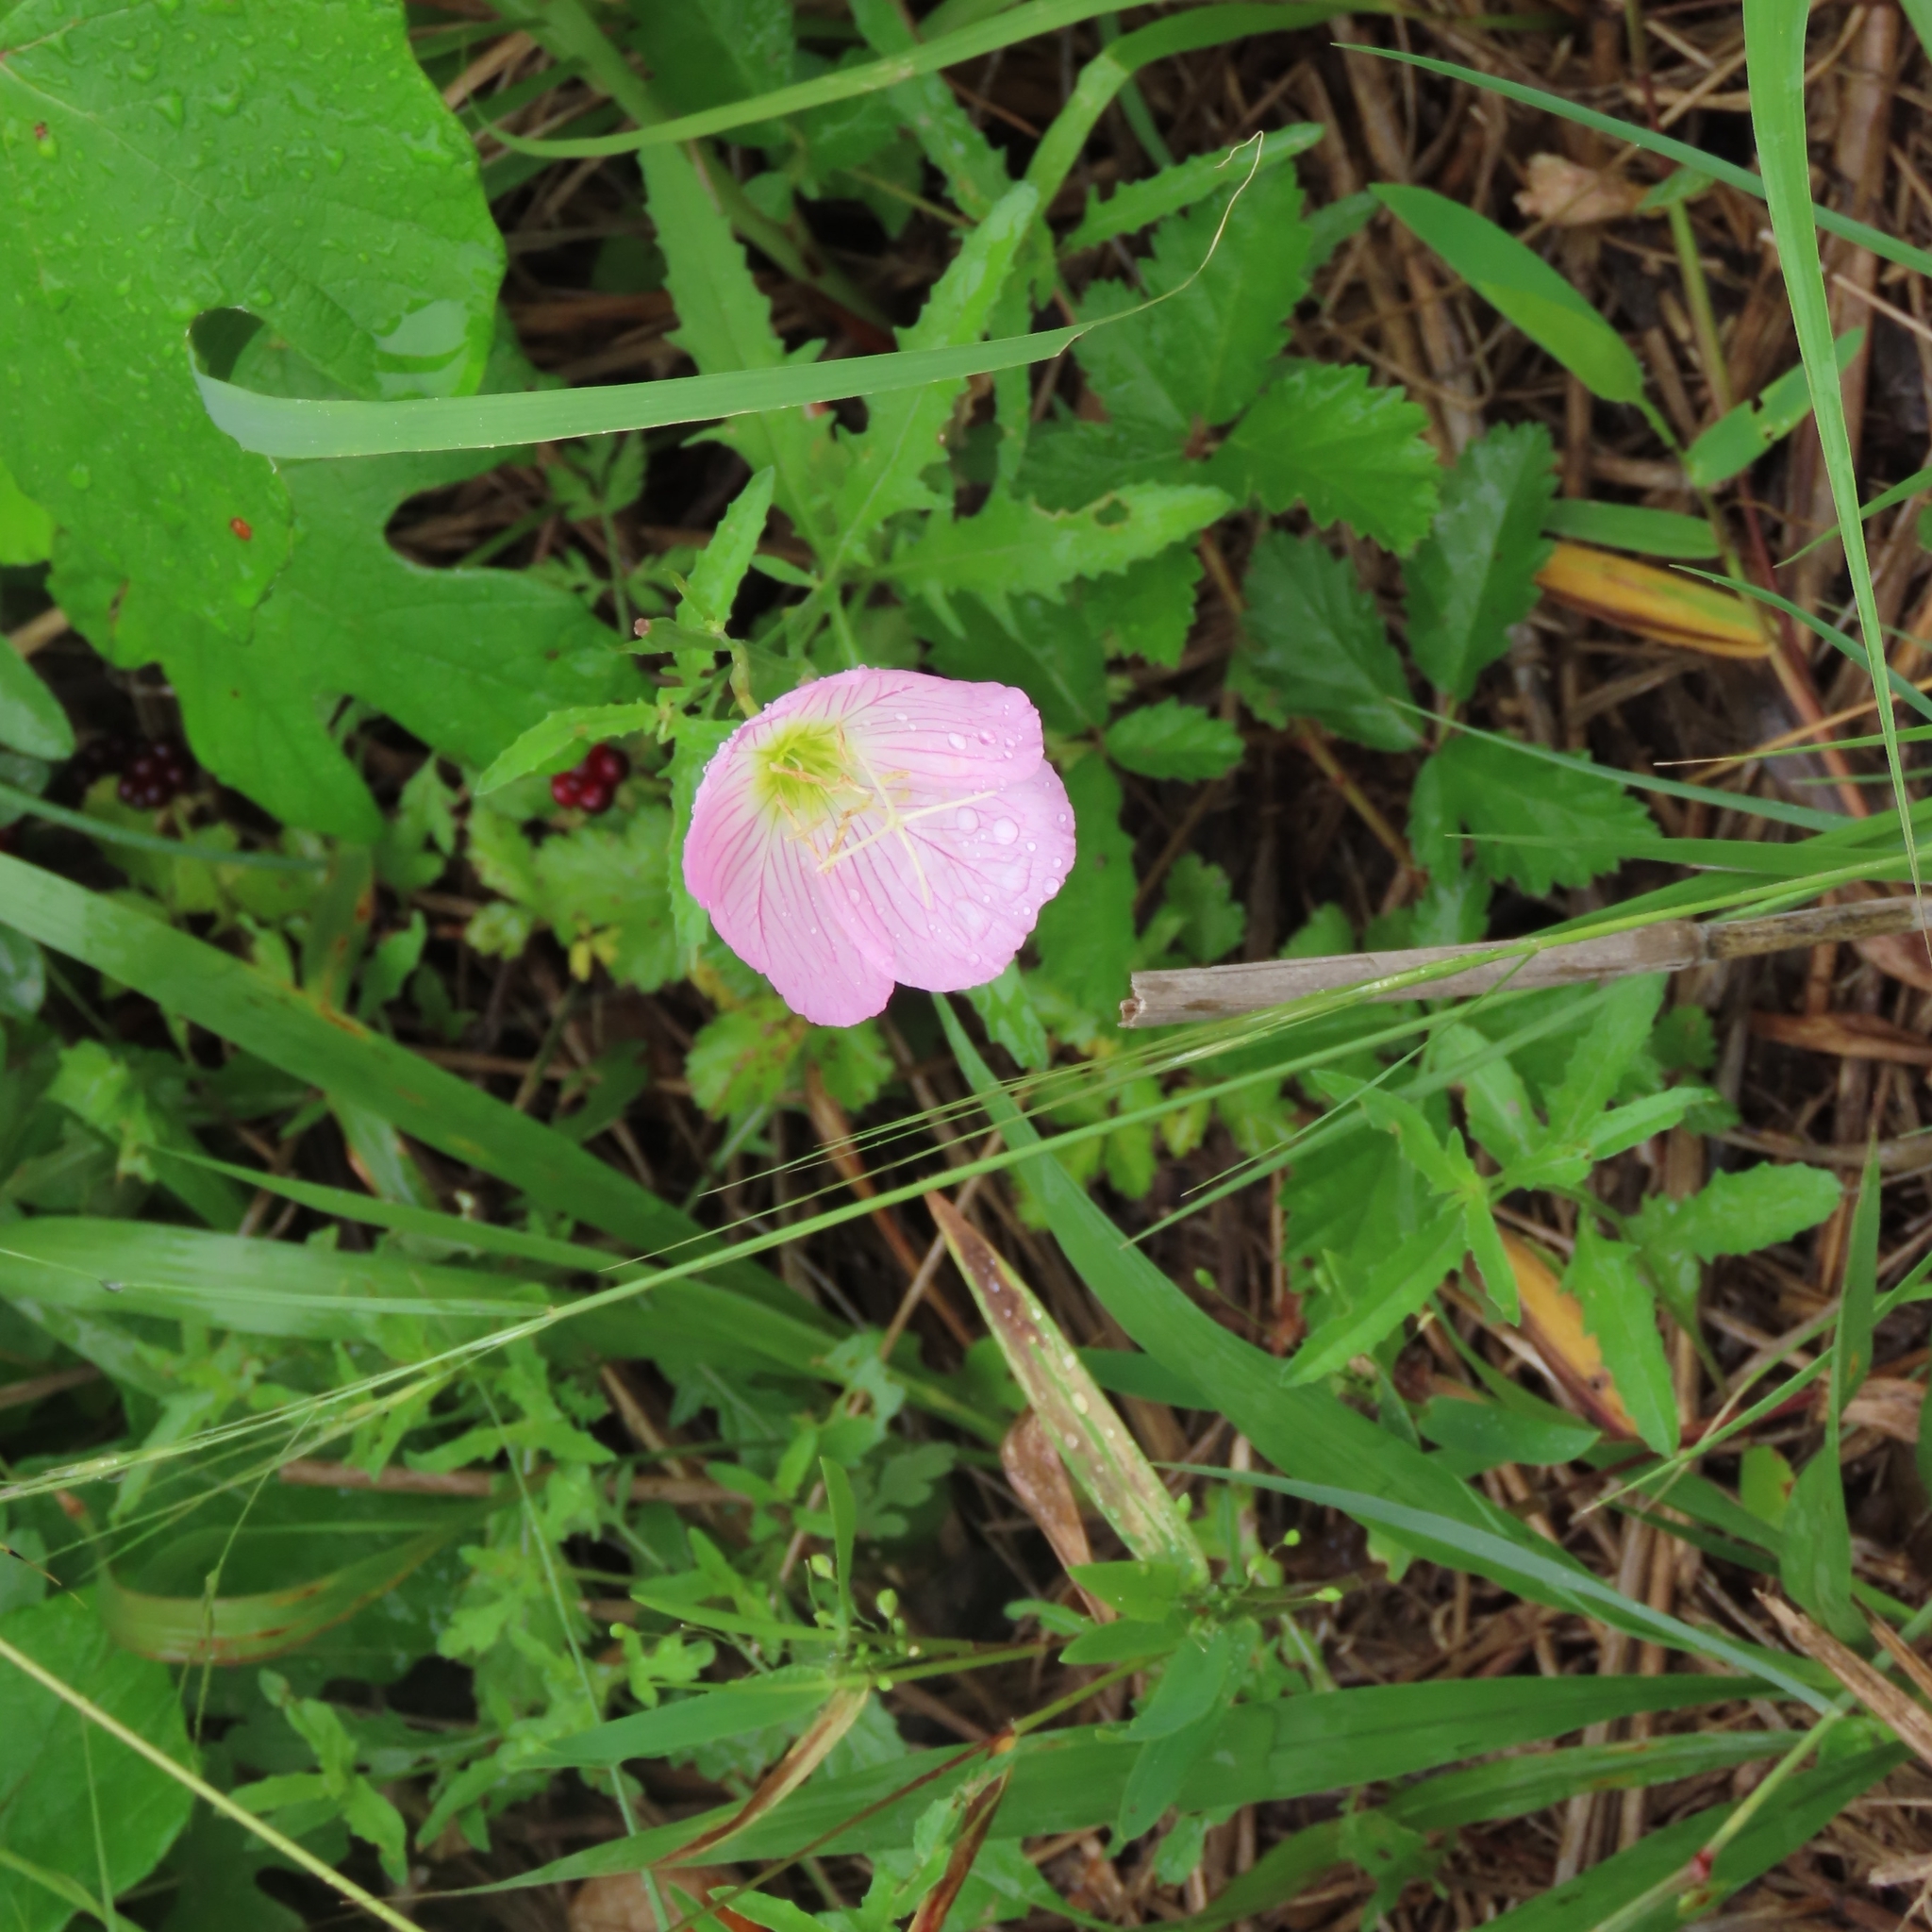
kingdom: Plantae
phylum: Tracheophyta
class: Magnoliopsida
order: Myrtales
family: Onagraceae
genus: Oenothera
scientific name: Oenothera speciosa
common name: White evening-primrose
